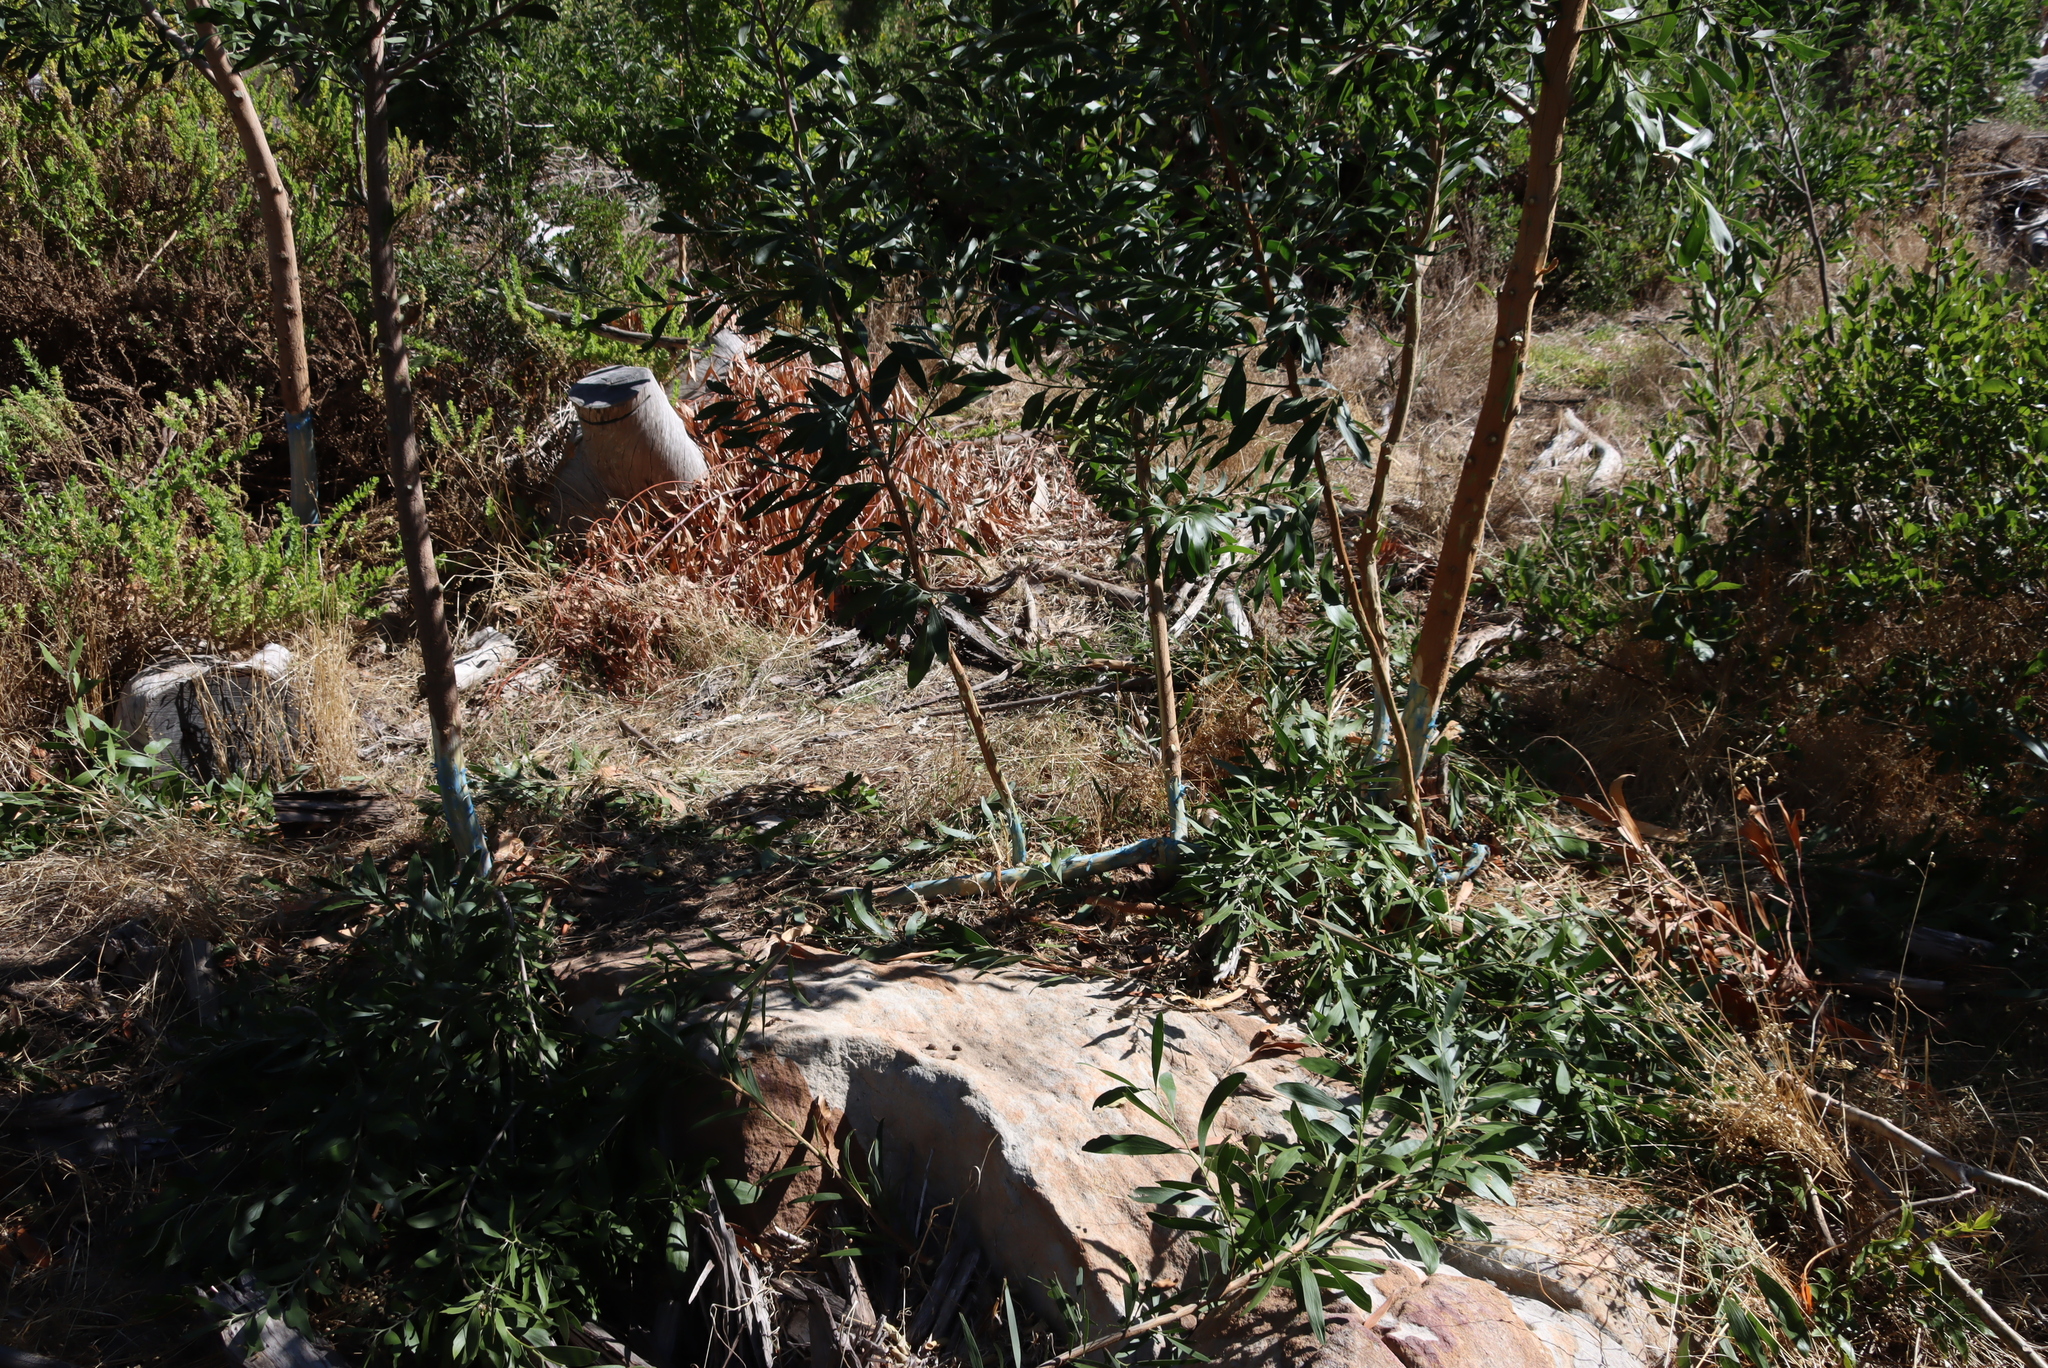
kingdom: Plantae
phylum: Tracheophyta
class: Magnoliopsida
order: Fabales
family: Fabaceae
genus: Acacia
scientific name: Acacia melanoxylon
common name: Blackwood
